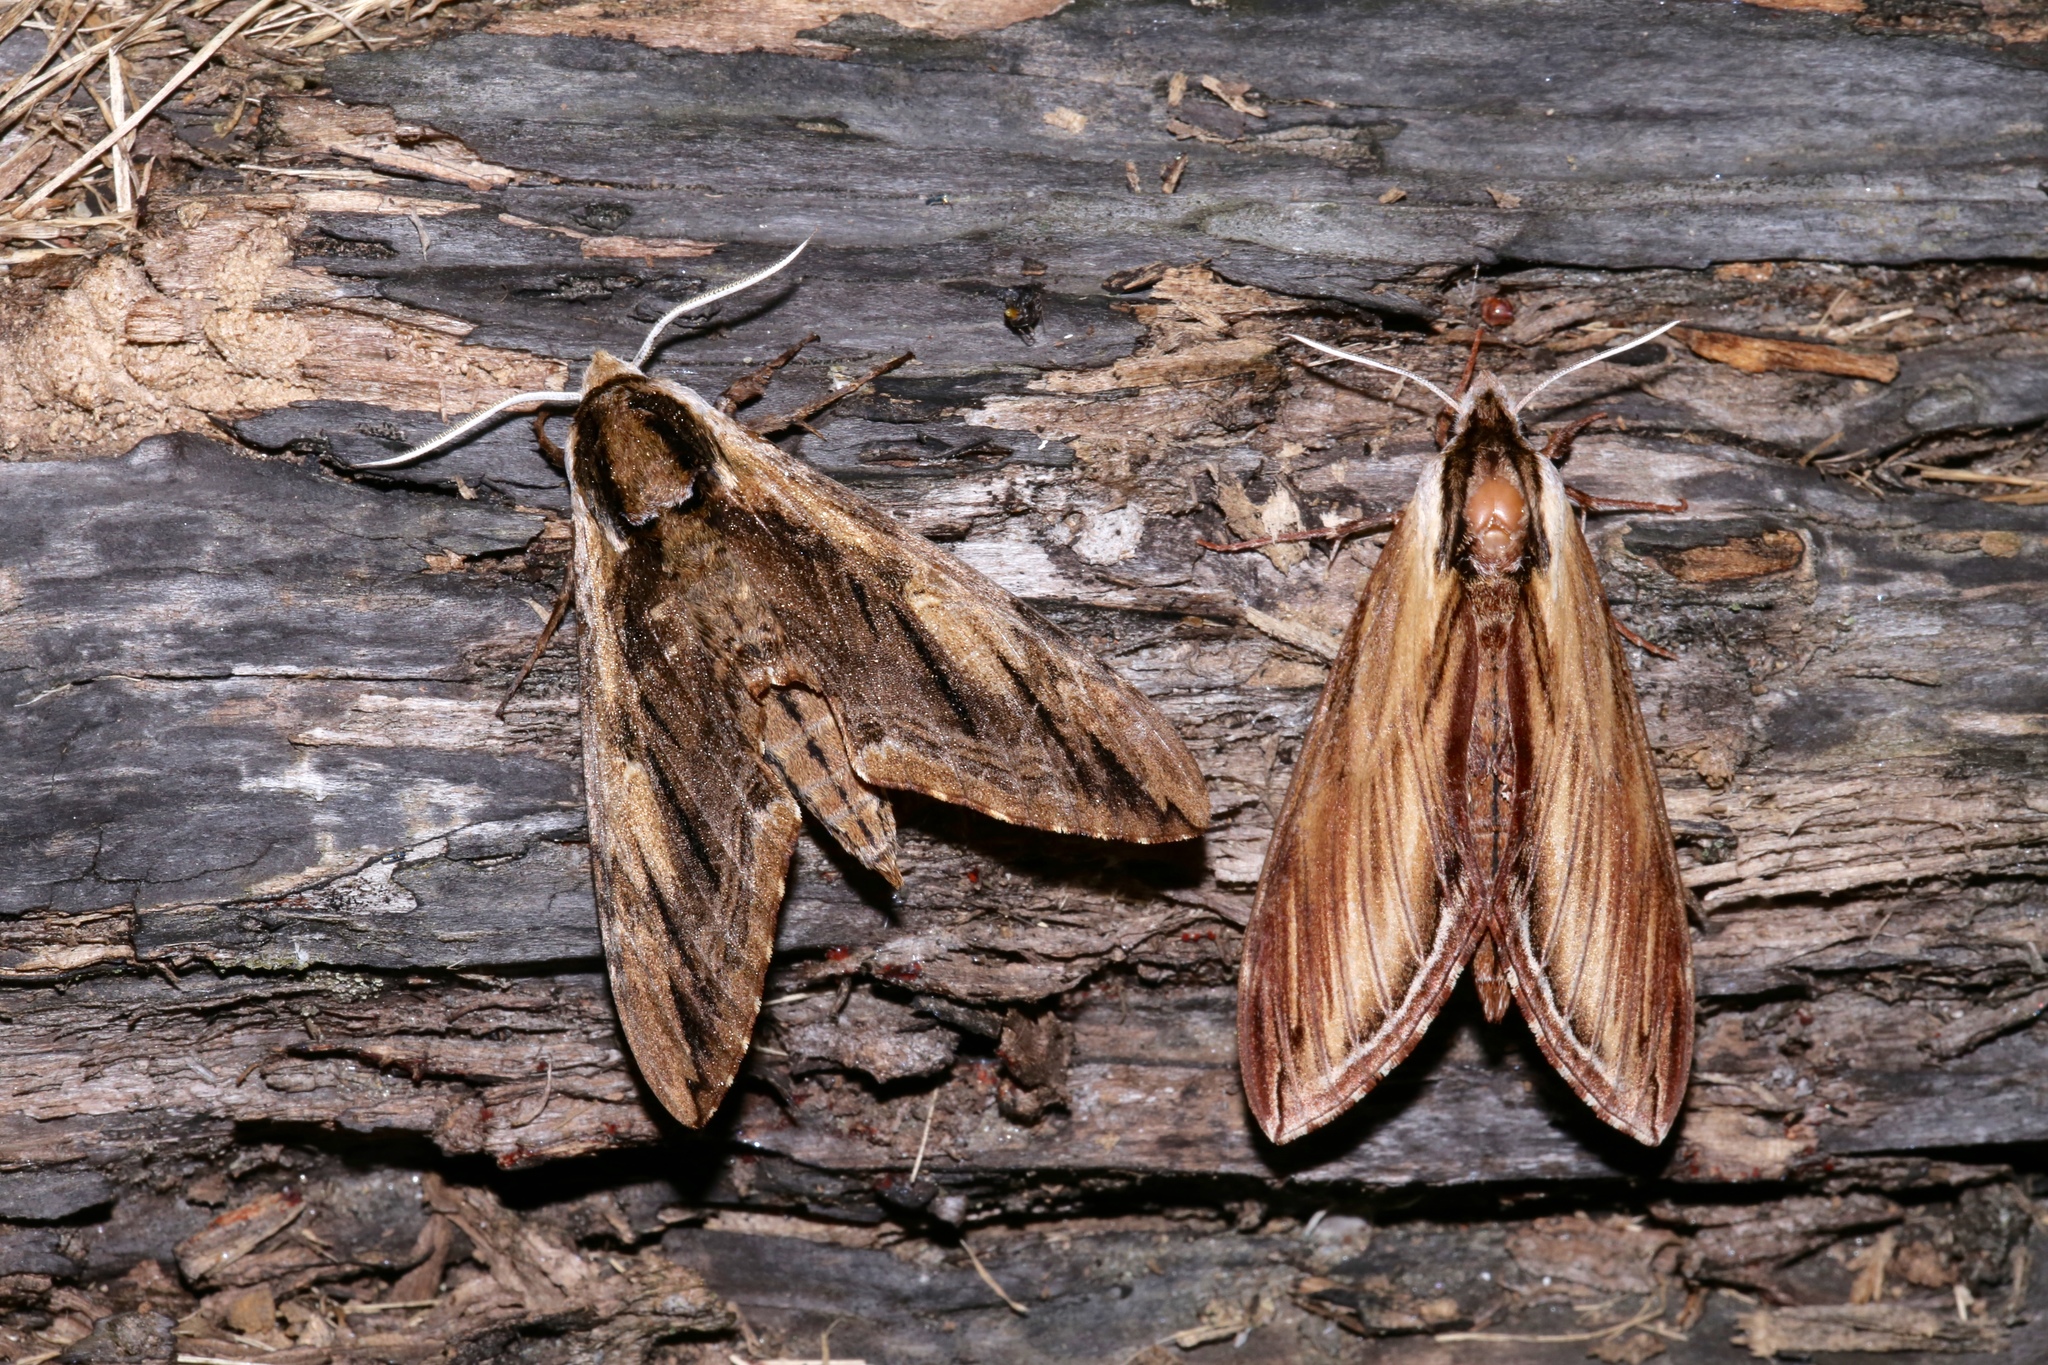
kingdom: Animalia
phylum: Arthropoda
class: Insecta
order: Lepidoptera
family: Sphingidae
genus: Sphinx
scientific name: Sphinx kalmiae
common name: Laurel sphinx
